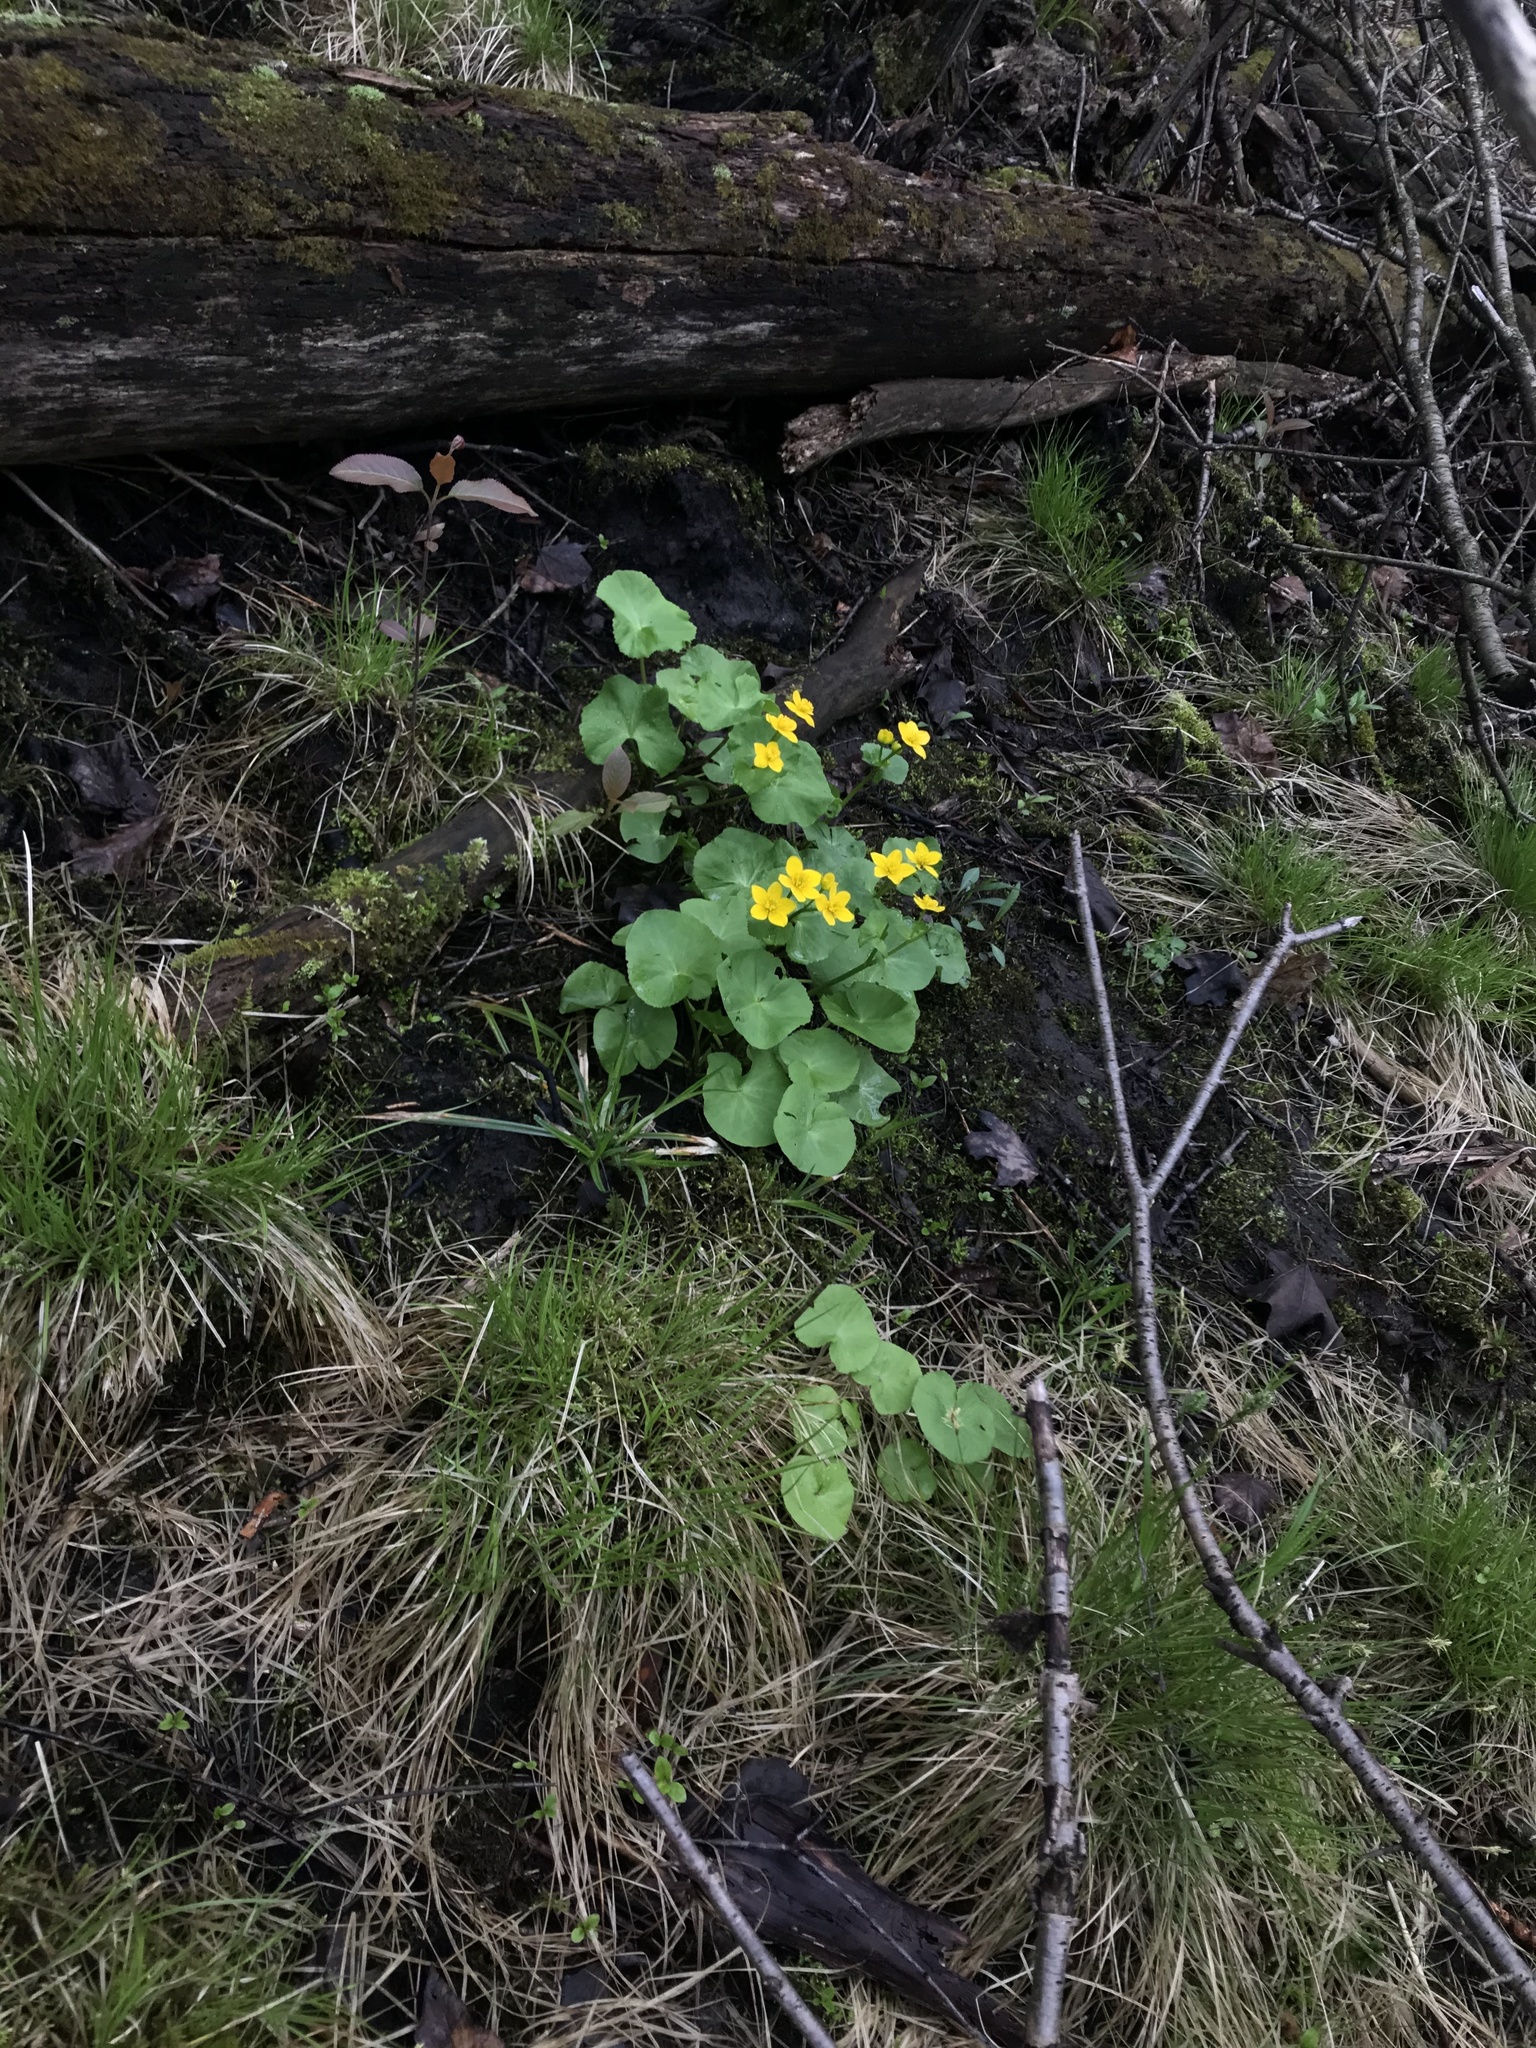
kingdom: Plantae
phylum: Tracheophyta
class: Magnoliopsida
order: Ranunculales
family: Ranunculaceae
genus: Caltha
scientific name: Caltha palustris
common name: Marsh marigold
